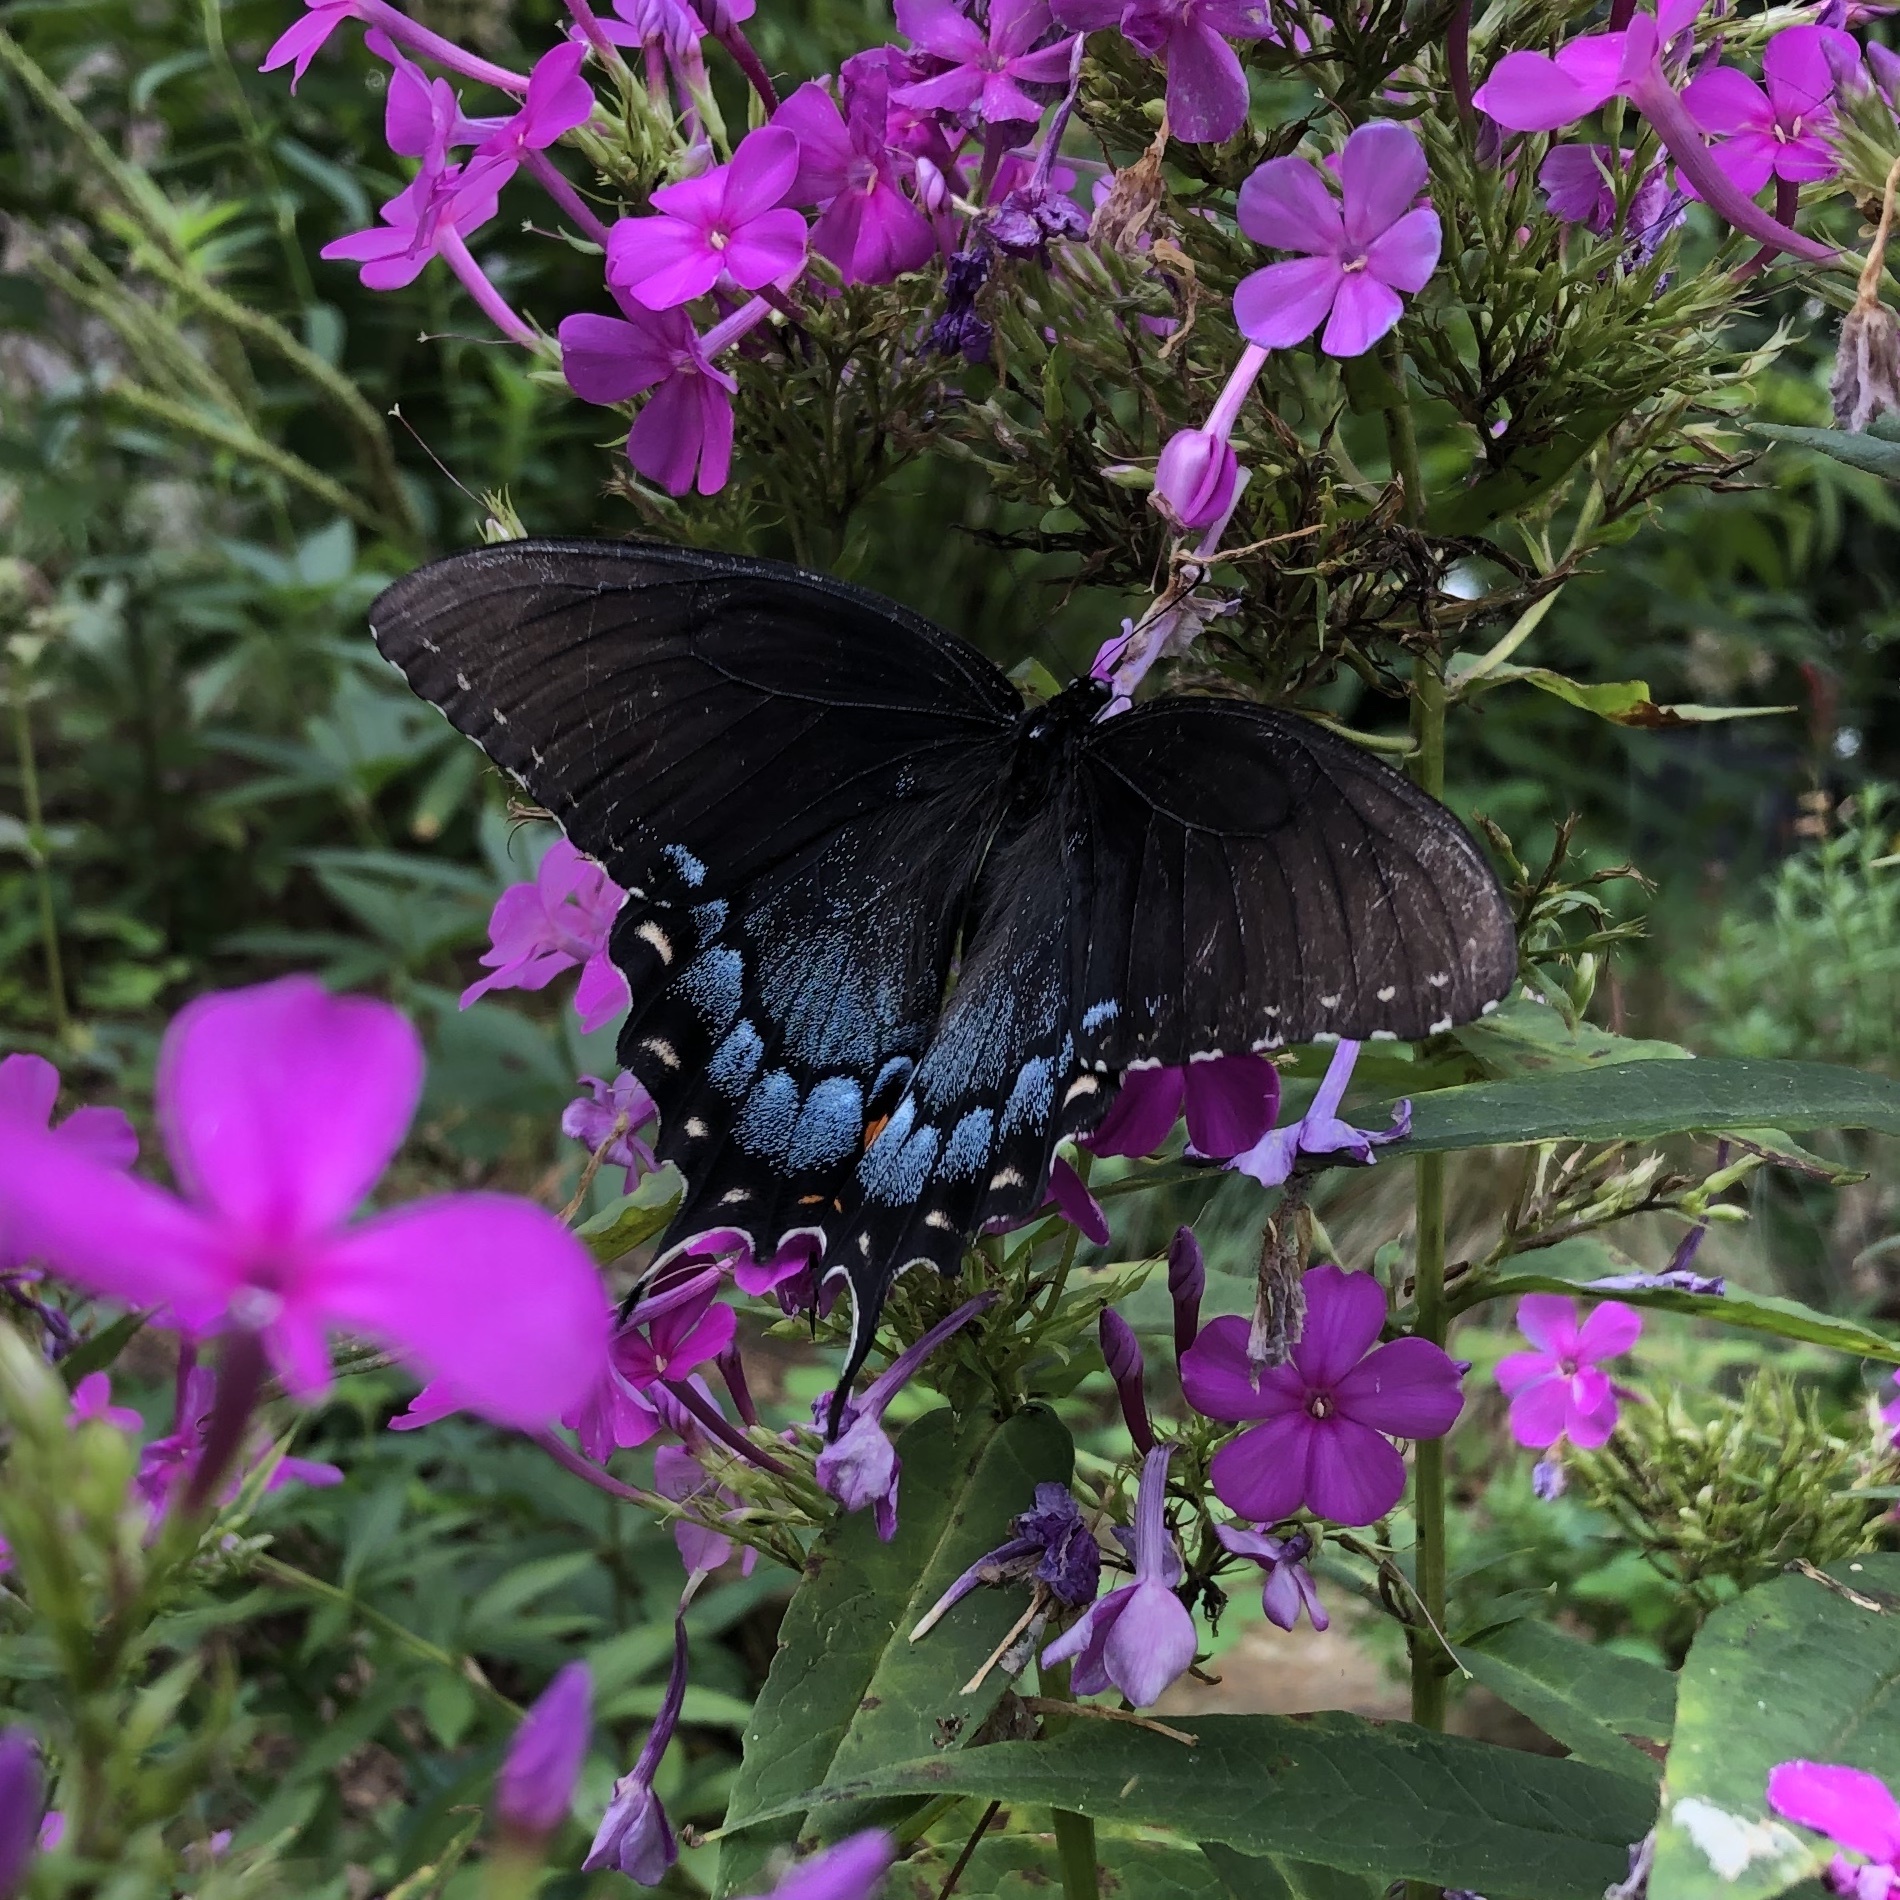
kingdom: Animalia
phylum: Arthropoda
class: Insecta
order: Lepidoptera
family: Papilionidae
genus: Papilio
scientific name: Papilio glaucus
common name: Tiger swallowtail
